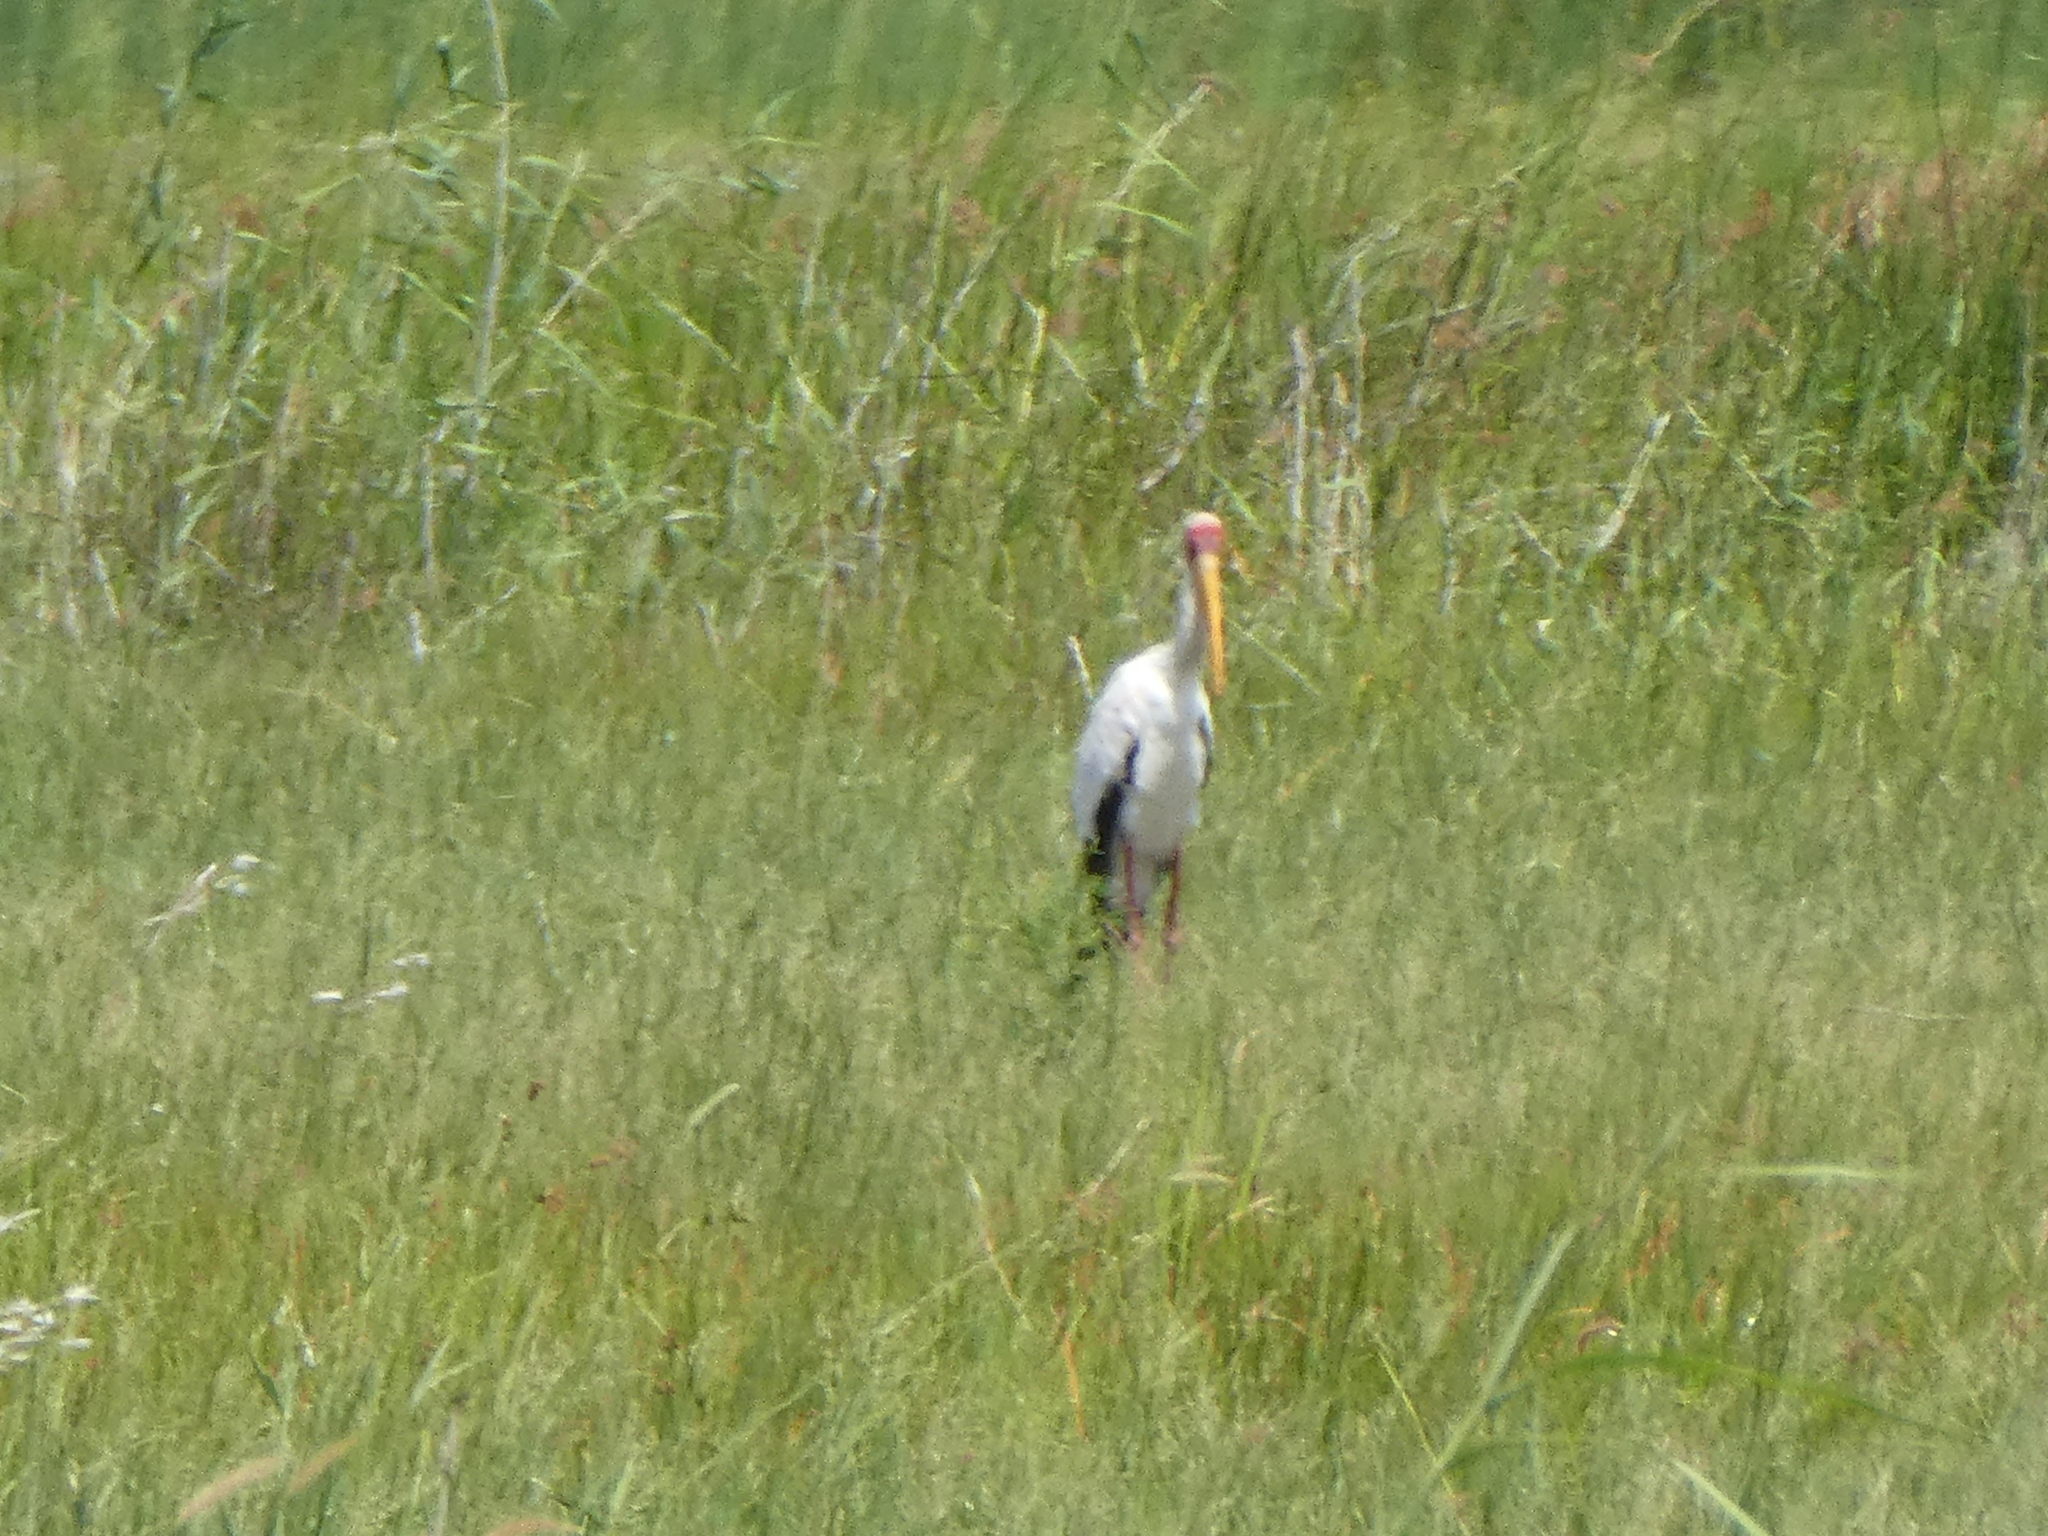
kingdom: Animalia
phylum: Chordata
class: Aves
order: Ciconiiformes
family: Ciconiidae
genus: Mycteria
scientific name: Mycteria ibis
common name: Yellow-billed stork
